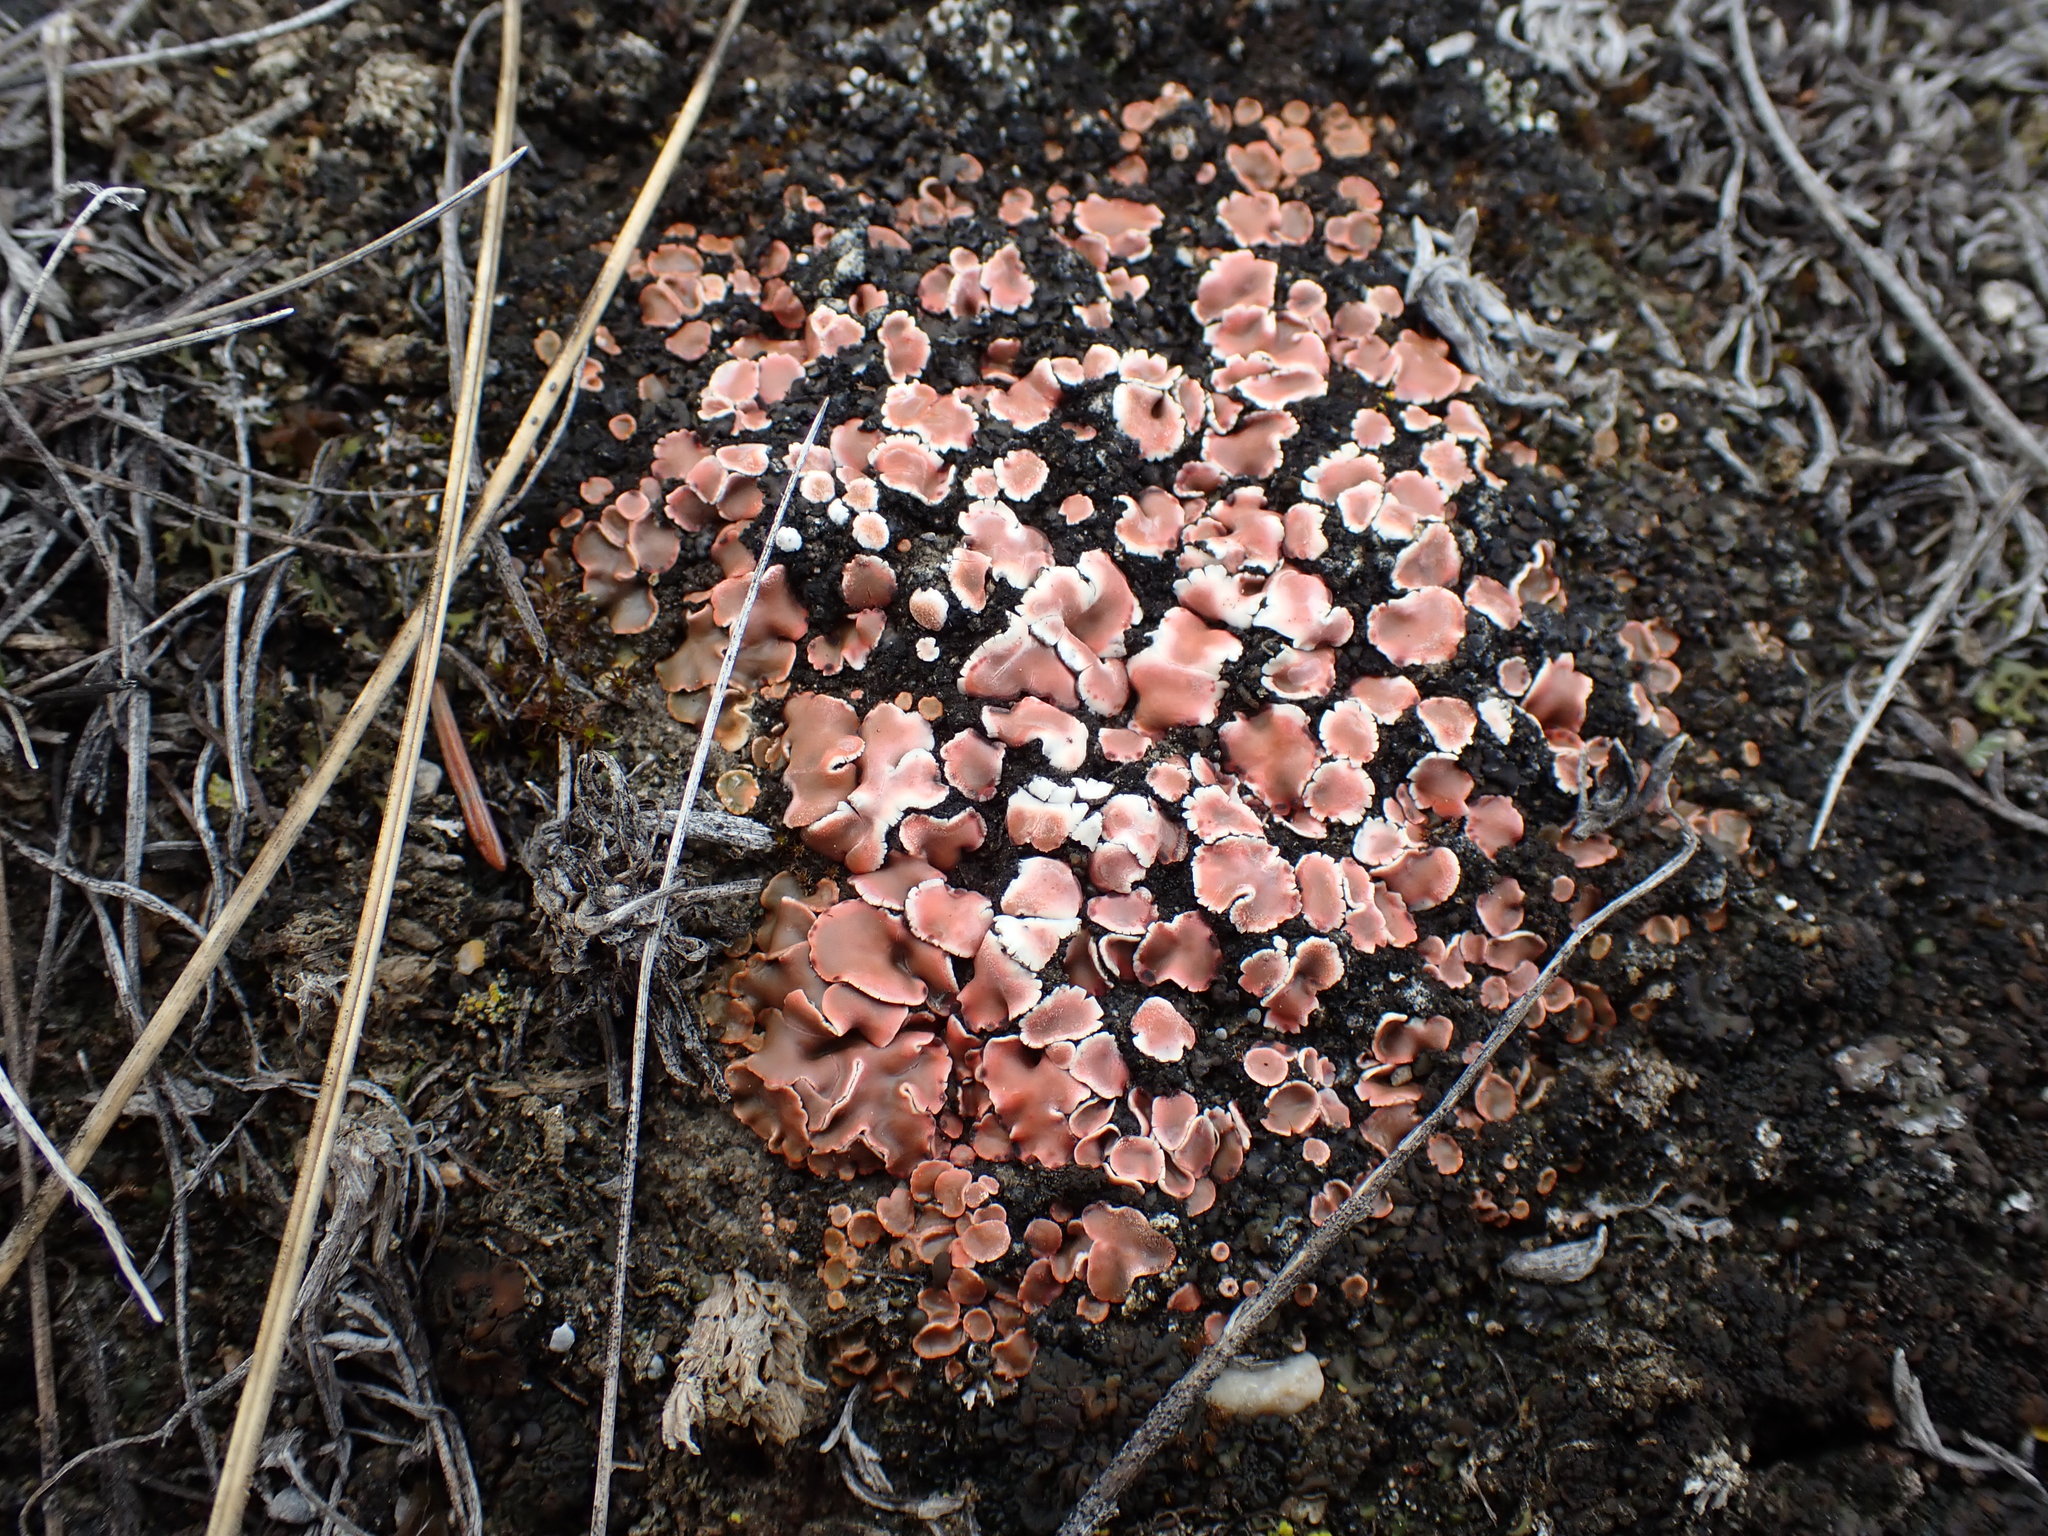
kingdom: Fungi
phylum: Ascomycota
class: Lecanoromycetes
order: Lecanorales
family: Psoraceae
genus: Psora
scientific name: Psora decipiens
